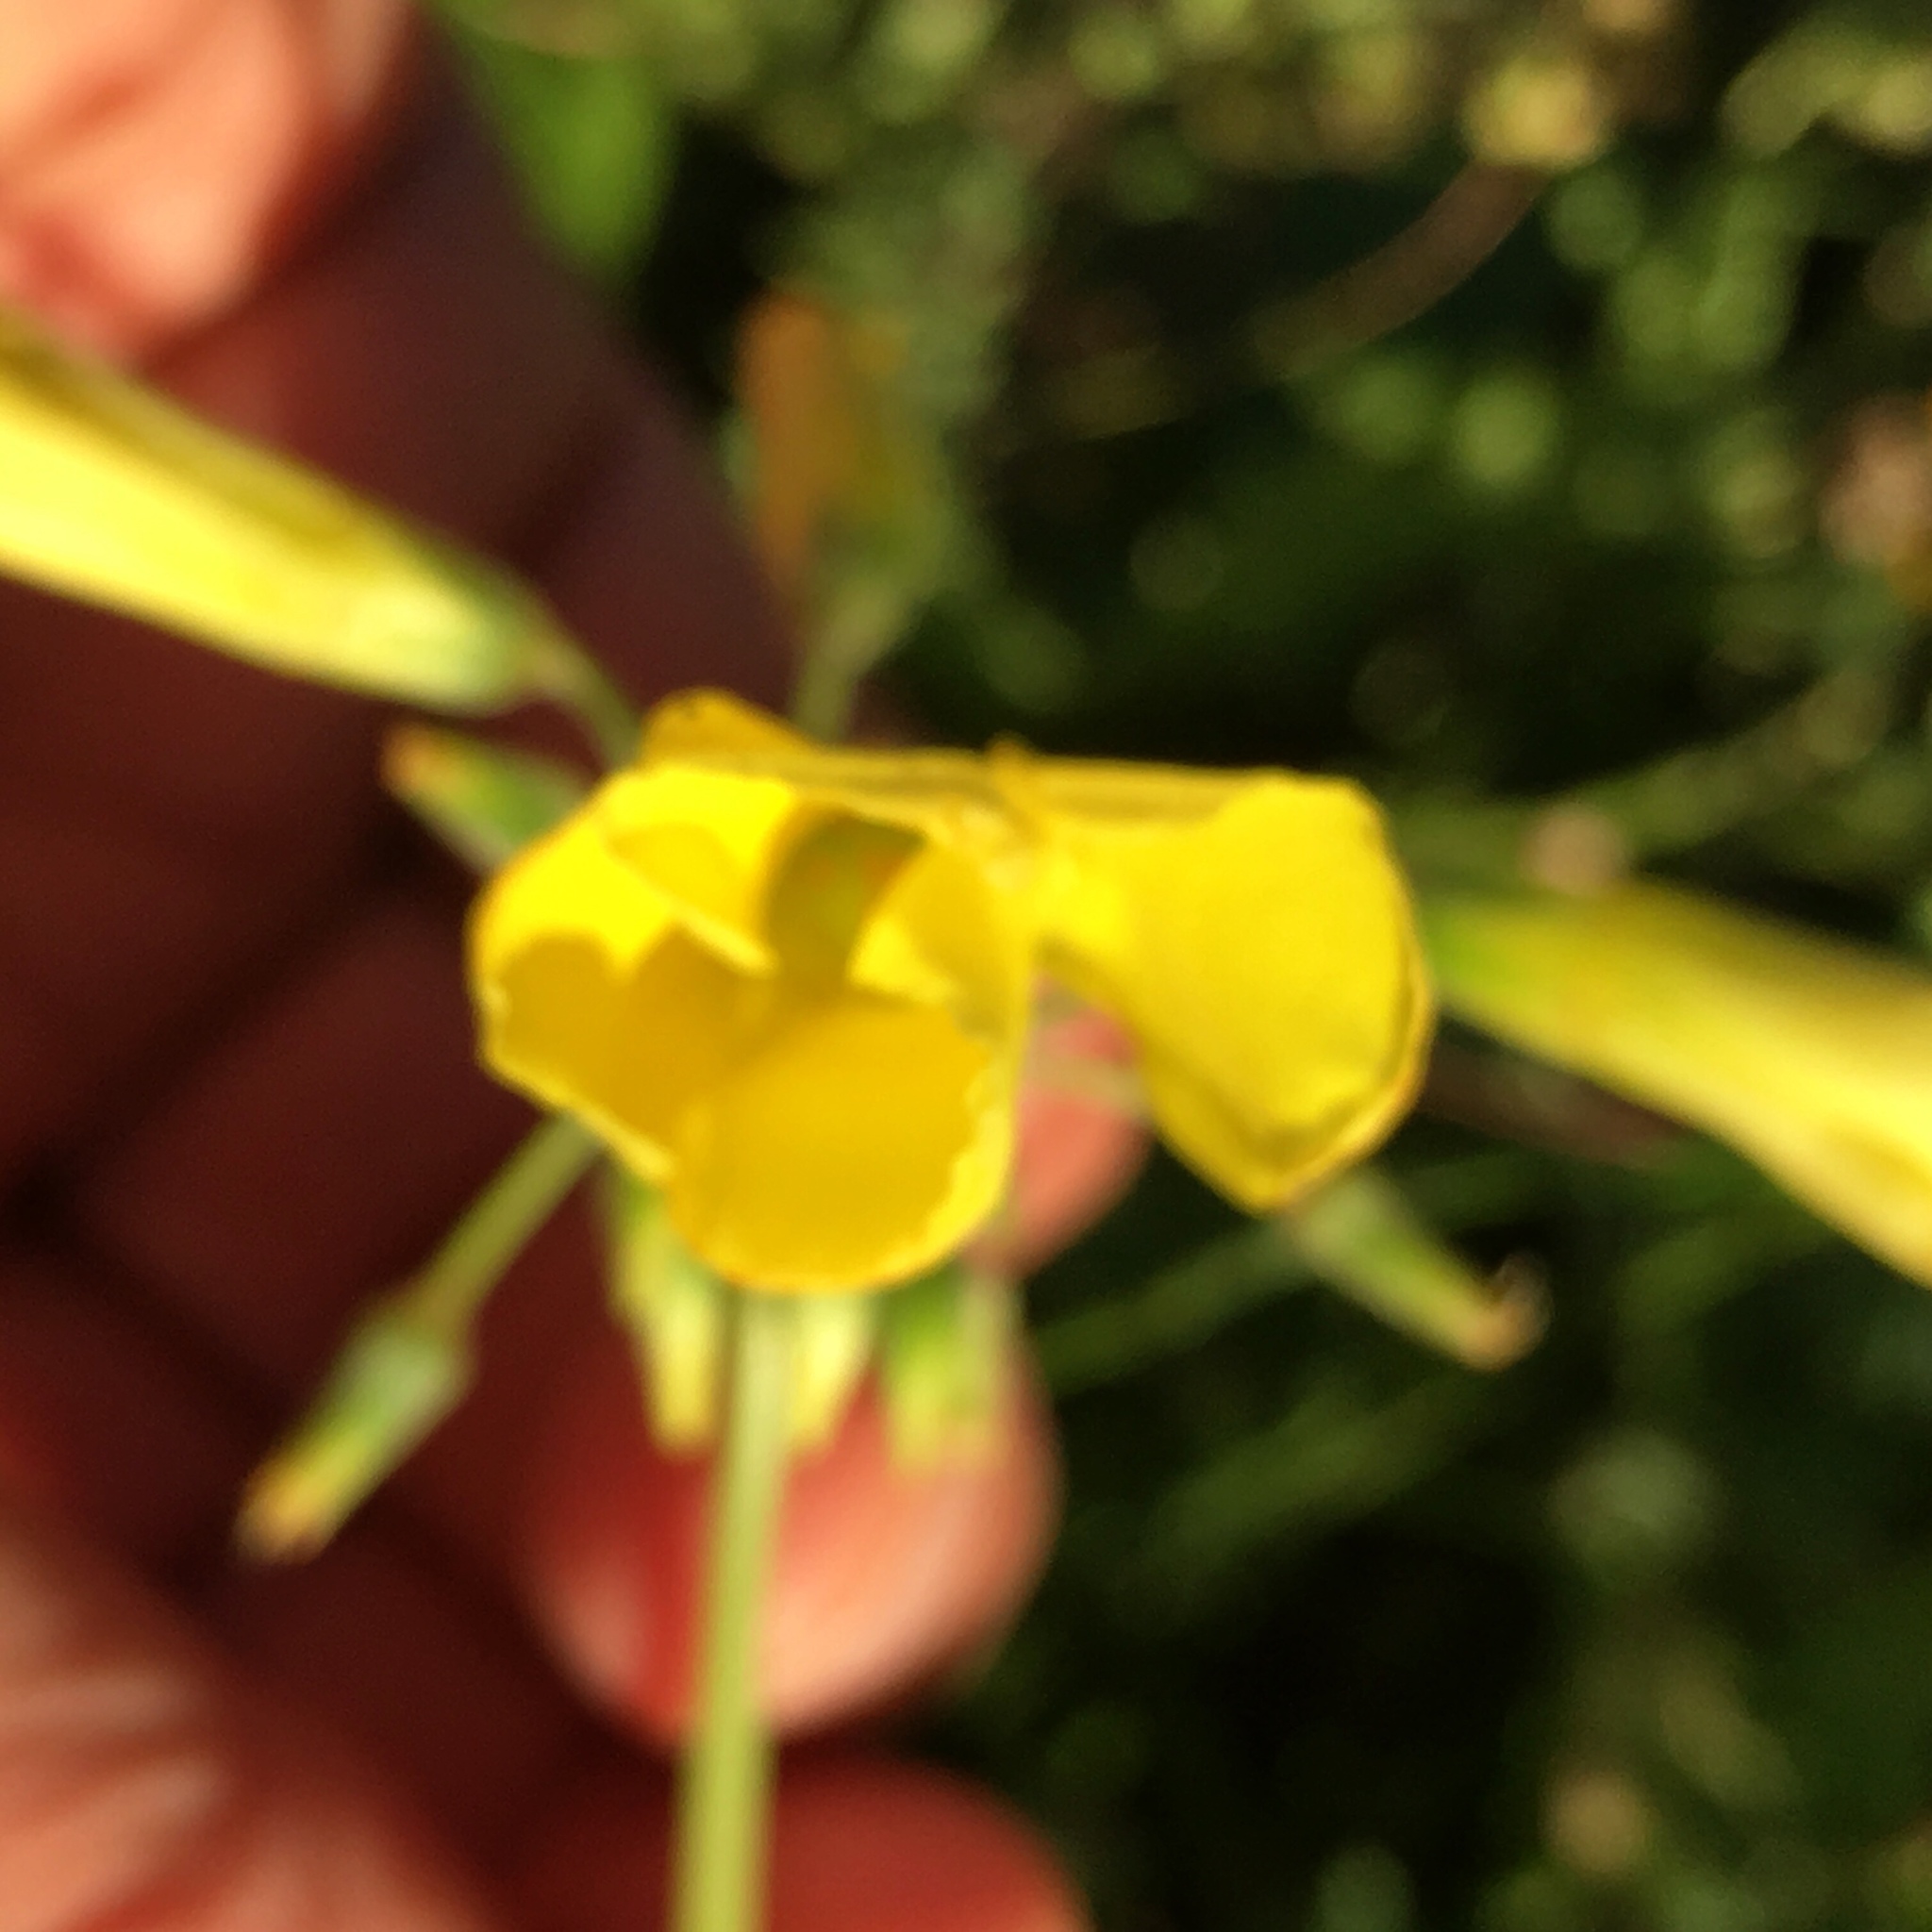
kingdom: Plantae
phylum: Tracheophyta
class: Magnoliopsida
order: Oxalidales
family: Oxalidaceae
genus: Oxalis
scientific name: Oxalis pes-caprae
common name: Bermuda-buttercup
